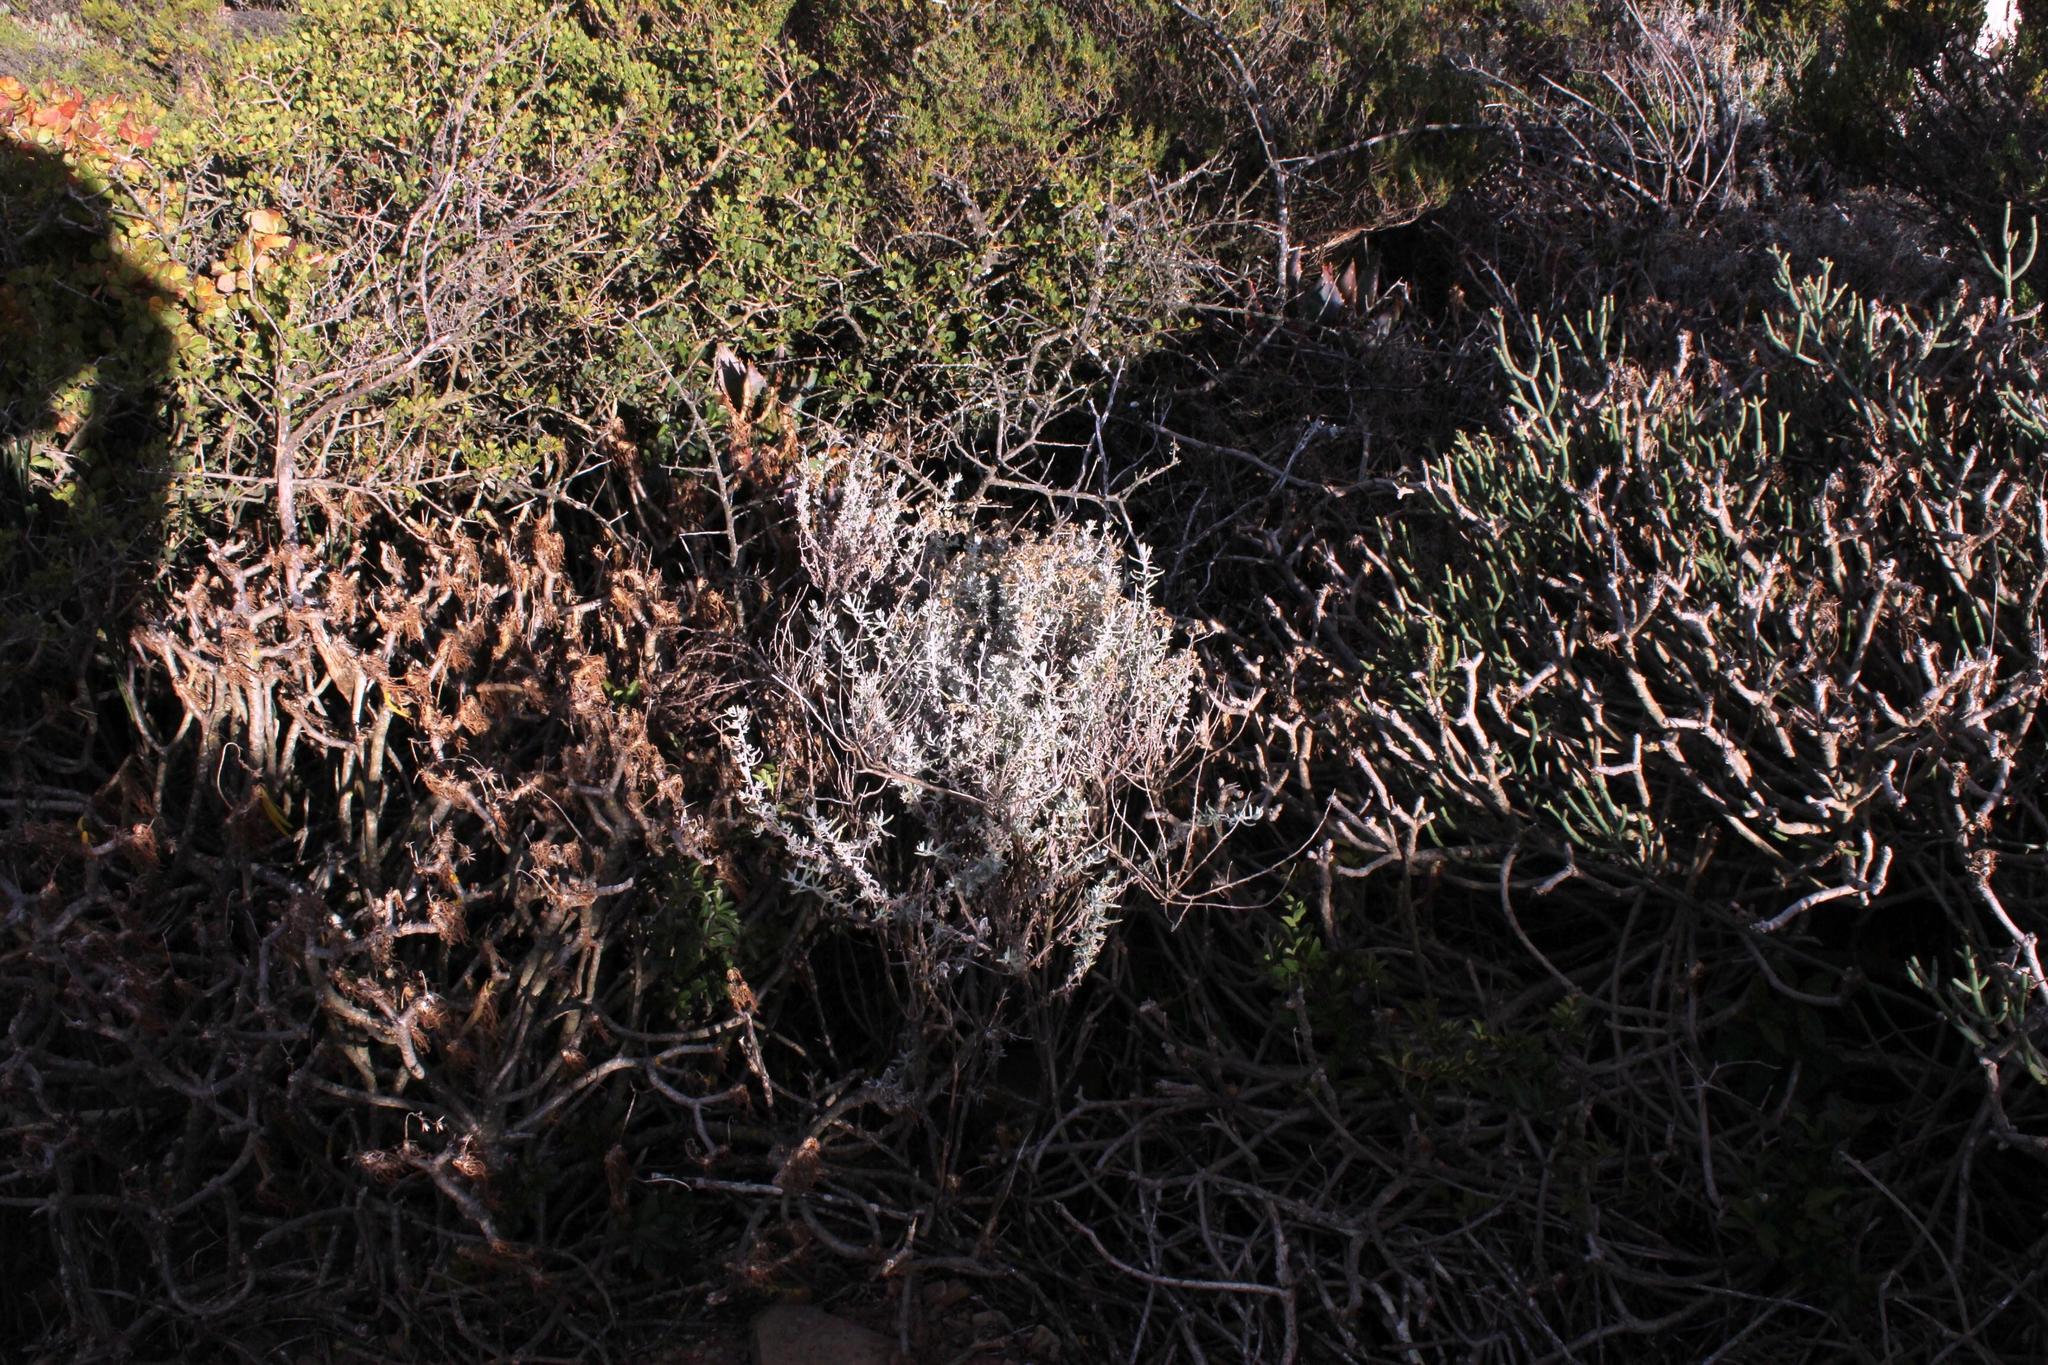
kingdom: Plantae
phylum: Tracheophyta
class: Magnoliopsida
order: Asterales
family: Asteraceae
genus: Helichrysum
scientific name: Helichrysum revolutum
